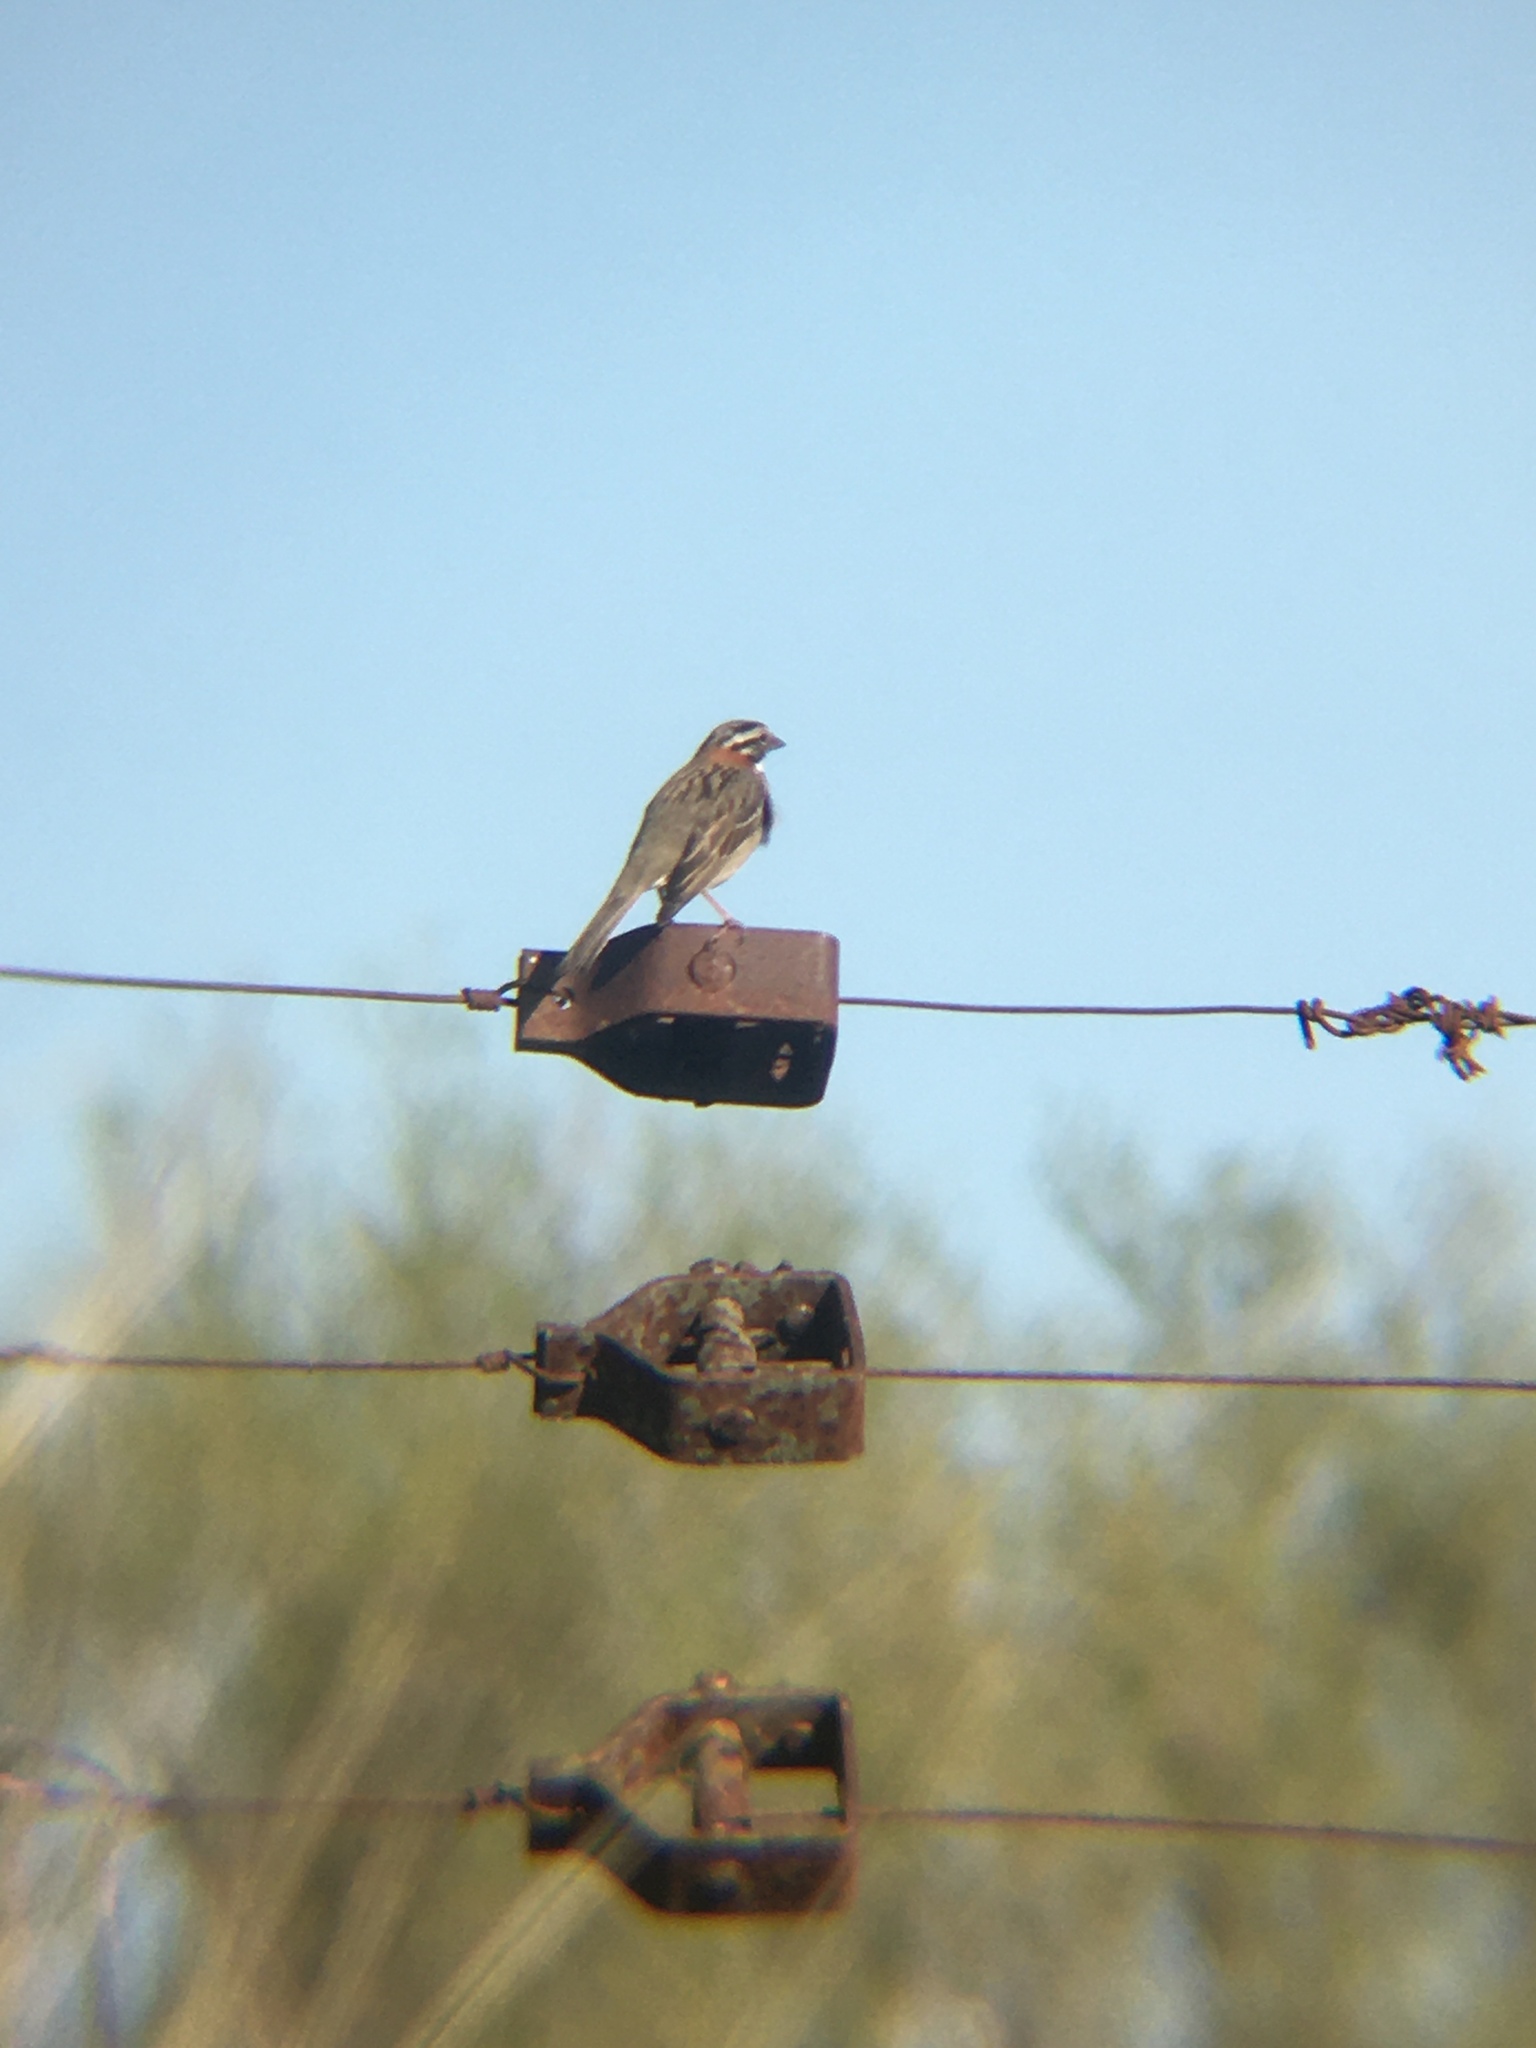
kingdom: Animalia
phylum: Chordata
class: Aves
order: Passeriformes
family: Passerellidae
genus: Zonotrichia
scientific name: Zonotrichia capensis
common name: Rufous-collared sparrow
